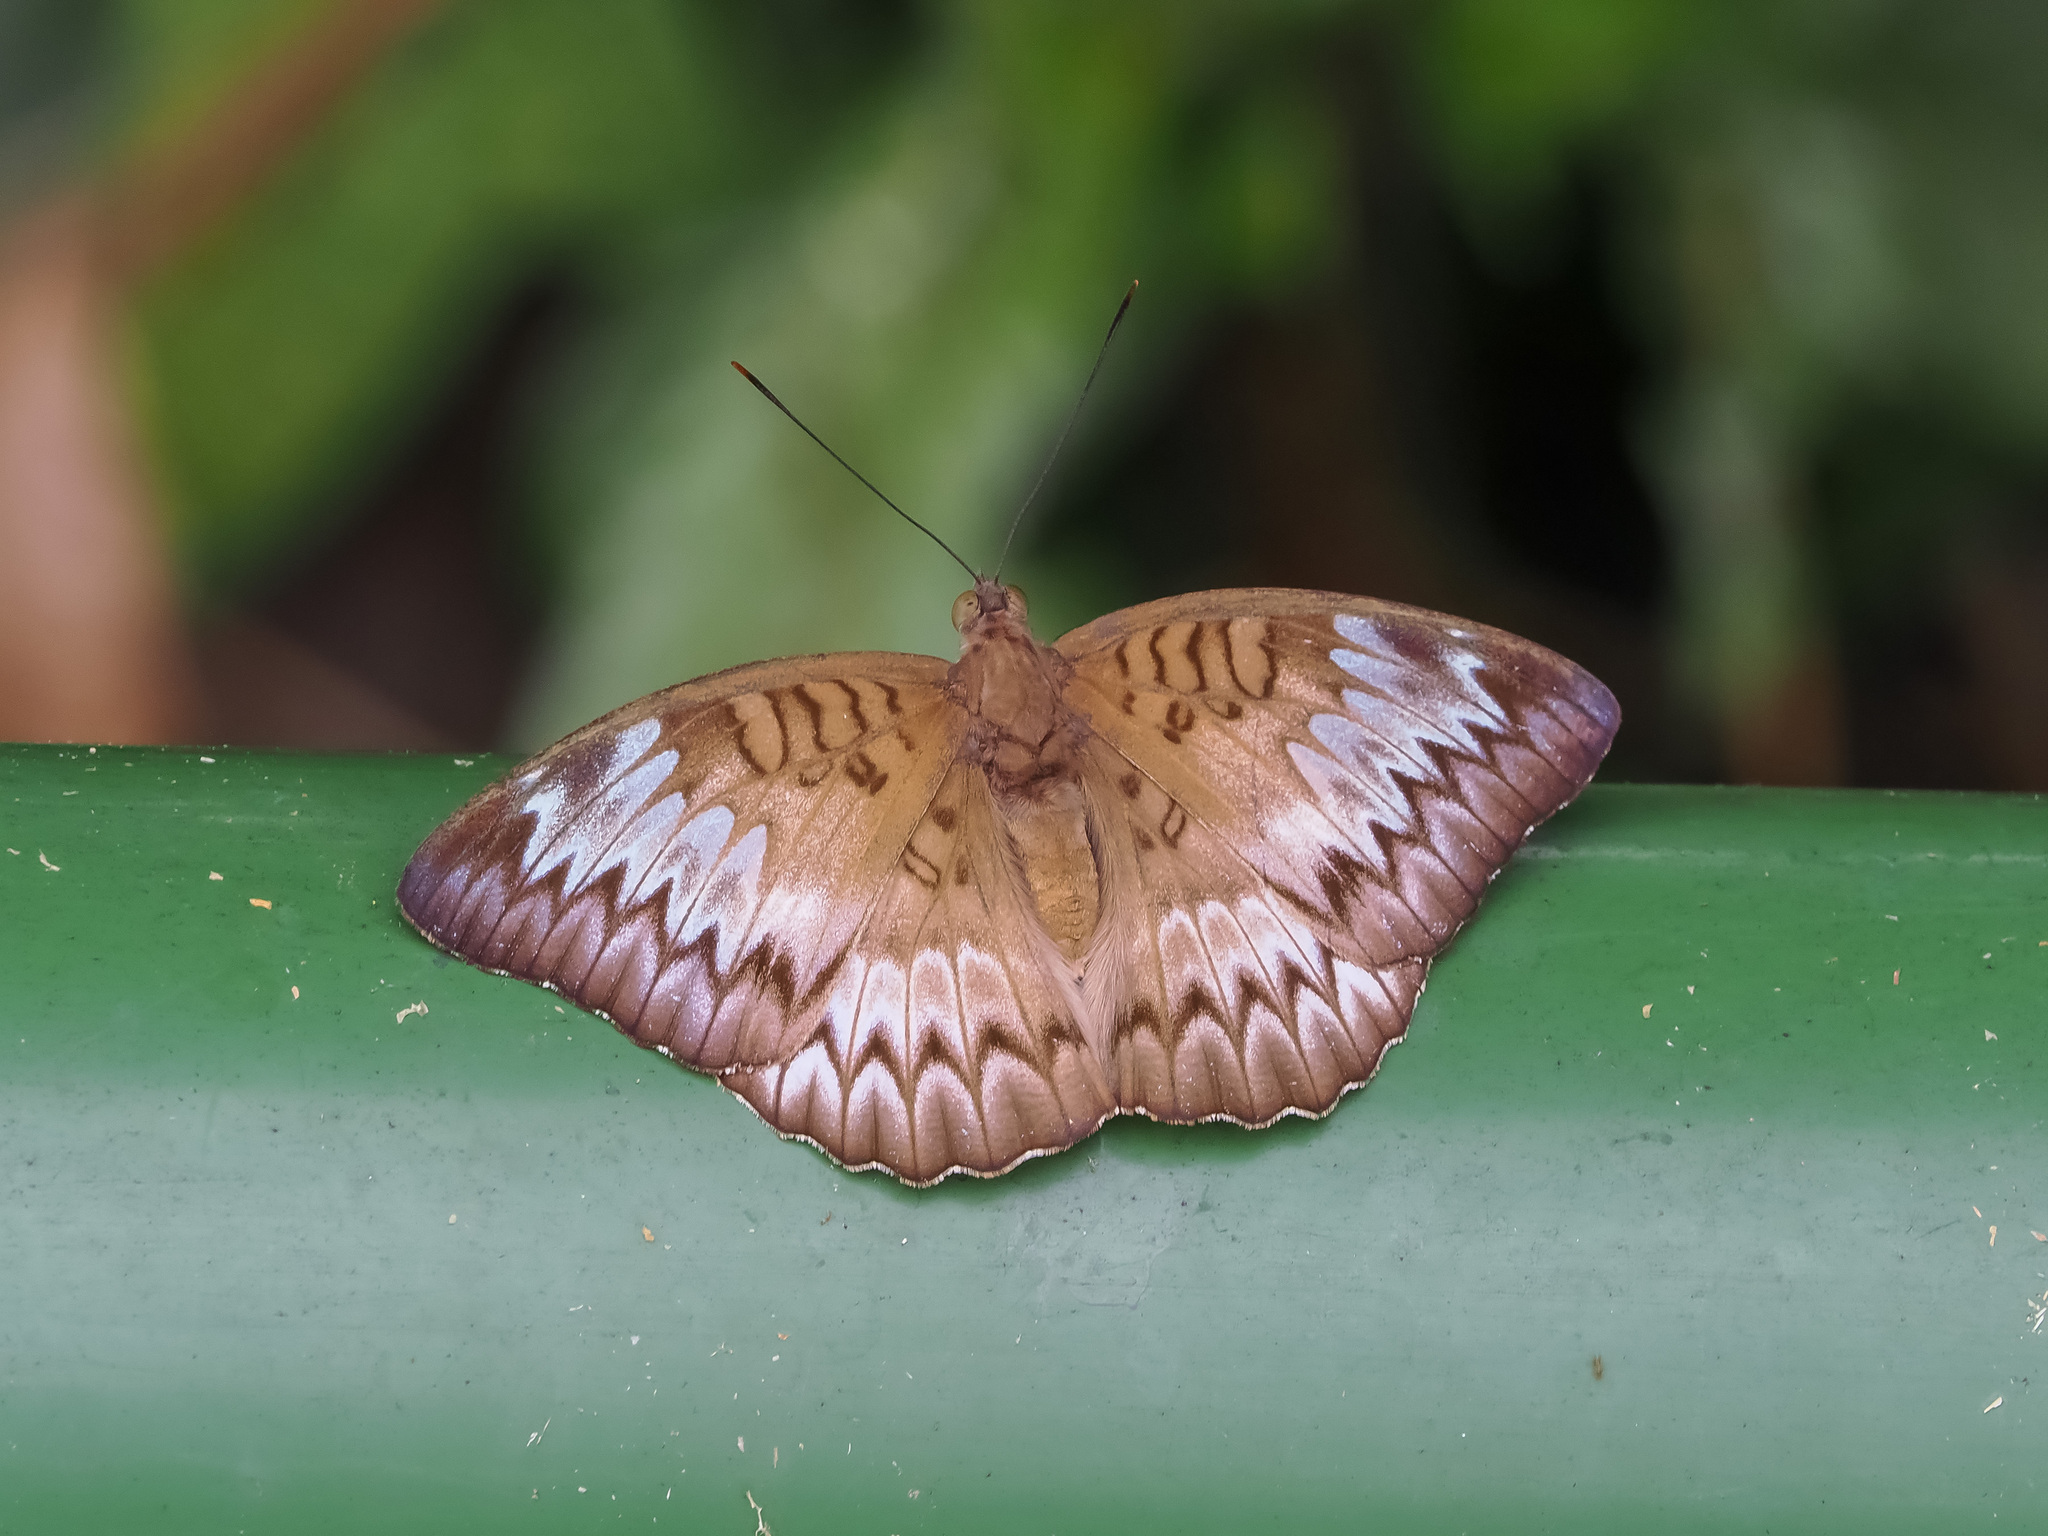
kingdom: Animalia
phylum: Arthropoda
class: Insecta
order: Lepidoptera
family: Nymphalidae
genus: Euthalia
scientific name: Euthalia monina
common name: Powdered baron
